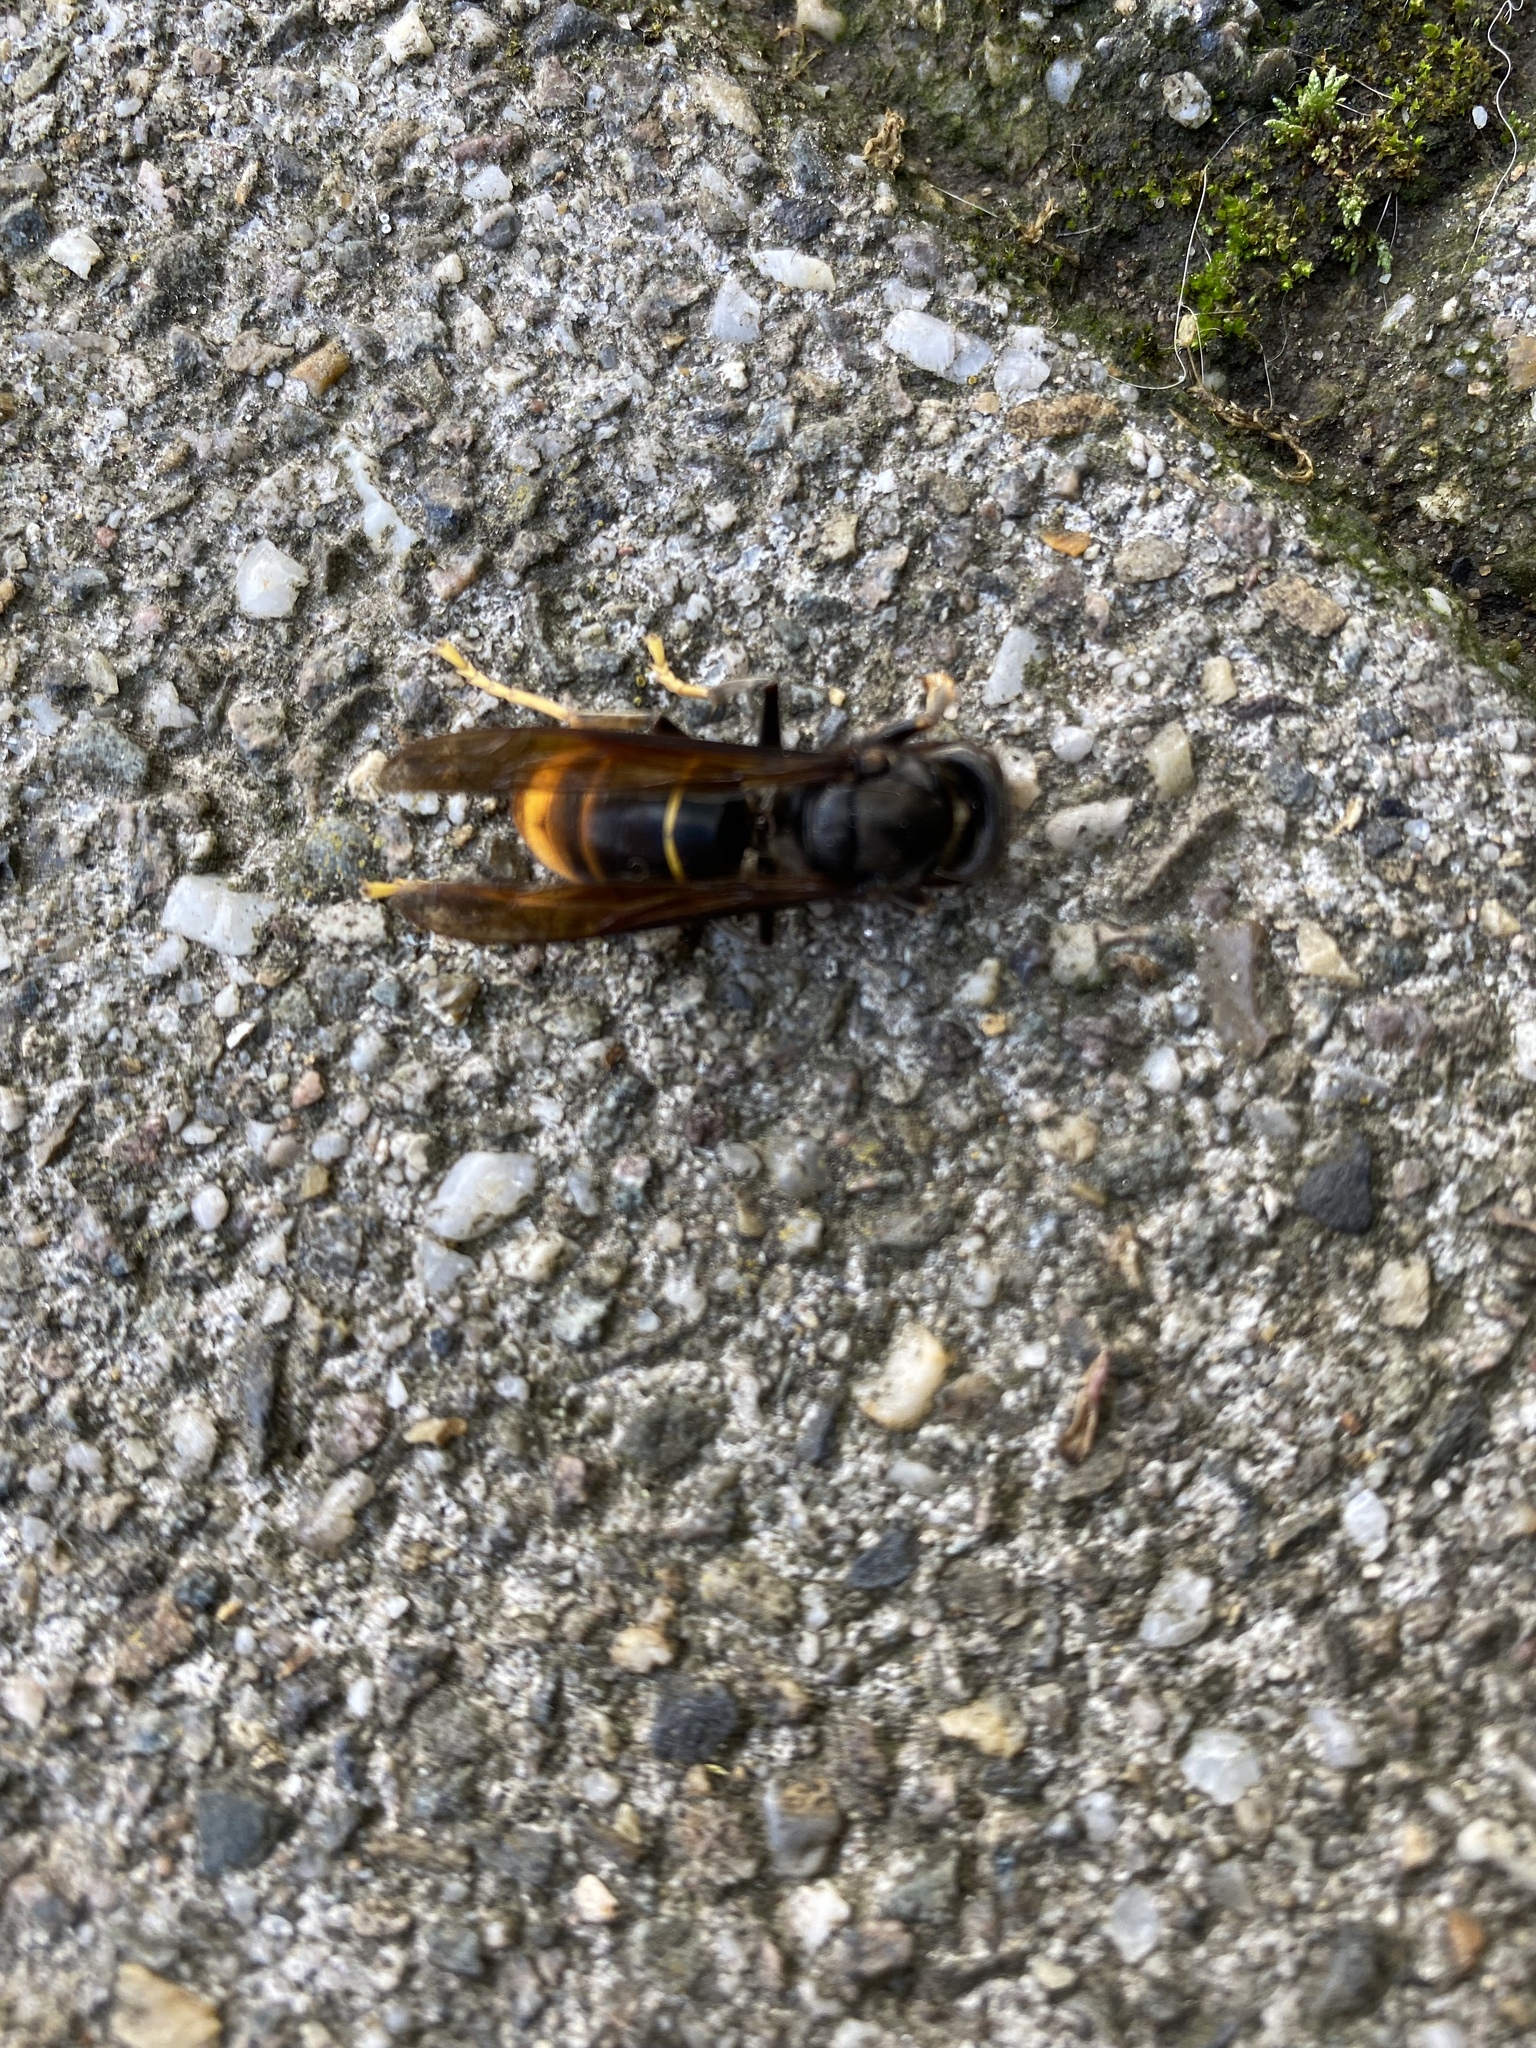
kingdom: Animalia
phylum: Arthropoda
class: Insecta
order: Hymenoptera
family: Vespidae
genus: Vespa
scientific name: Vespa velutina
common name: Asian hornet
